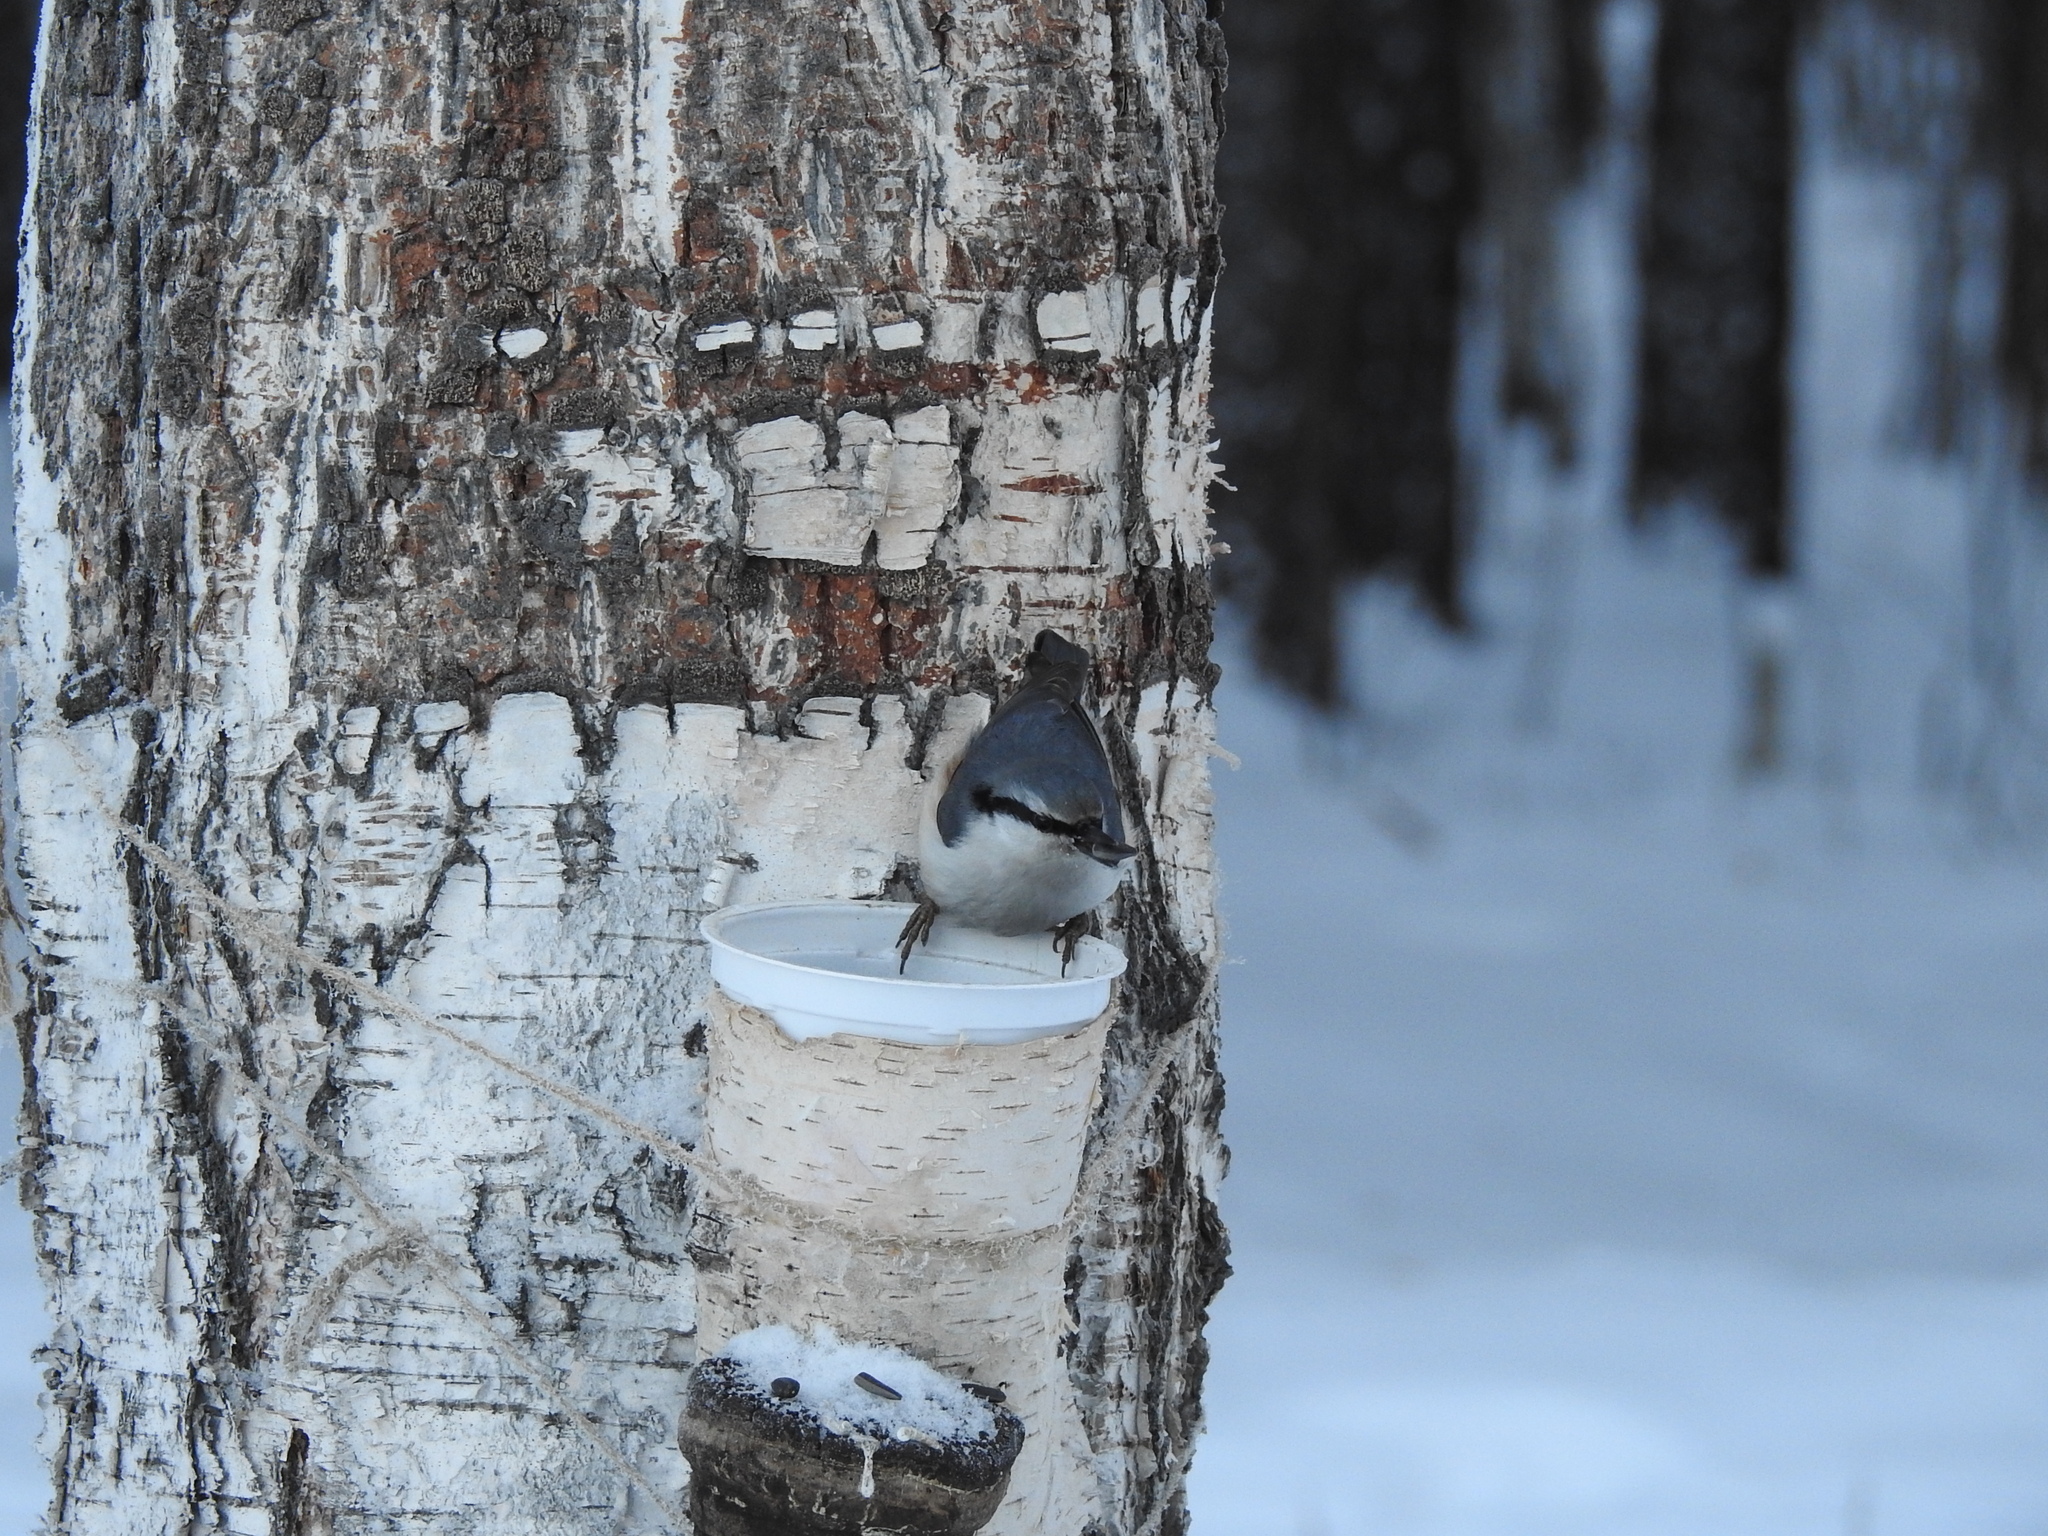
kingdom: Animalia
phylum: Chordata
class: Aves
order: Passeriformes
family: Sittidae
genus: Sitta
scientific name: Sitta europaea
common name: Eurasian nuthatch
